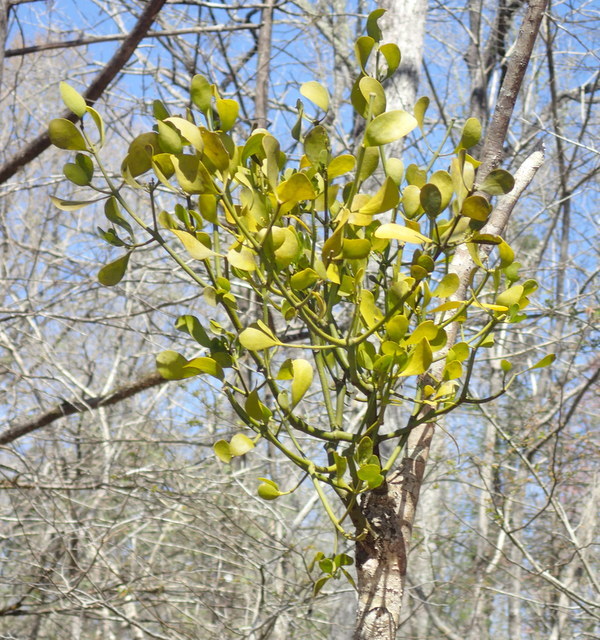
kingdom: Plantae
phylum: Tracheophyta
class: Magnoliopsida
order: Santalales
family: Viscaceae
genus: Phoradendron
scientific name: Phoradendron leucarpum
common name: Pacific mistletoe
